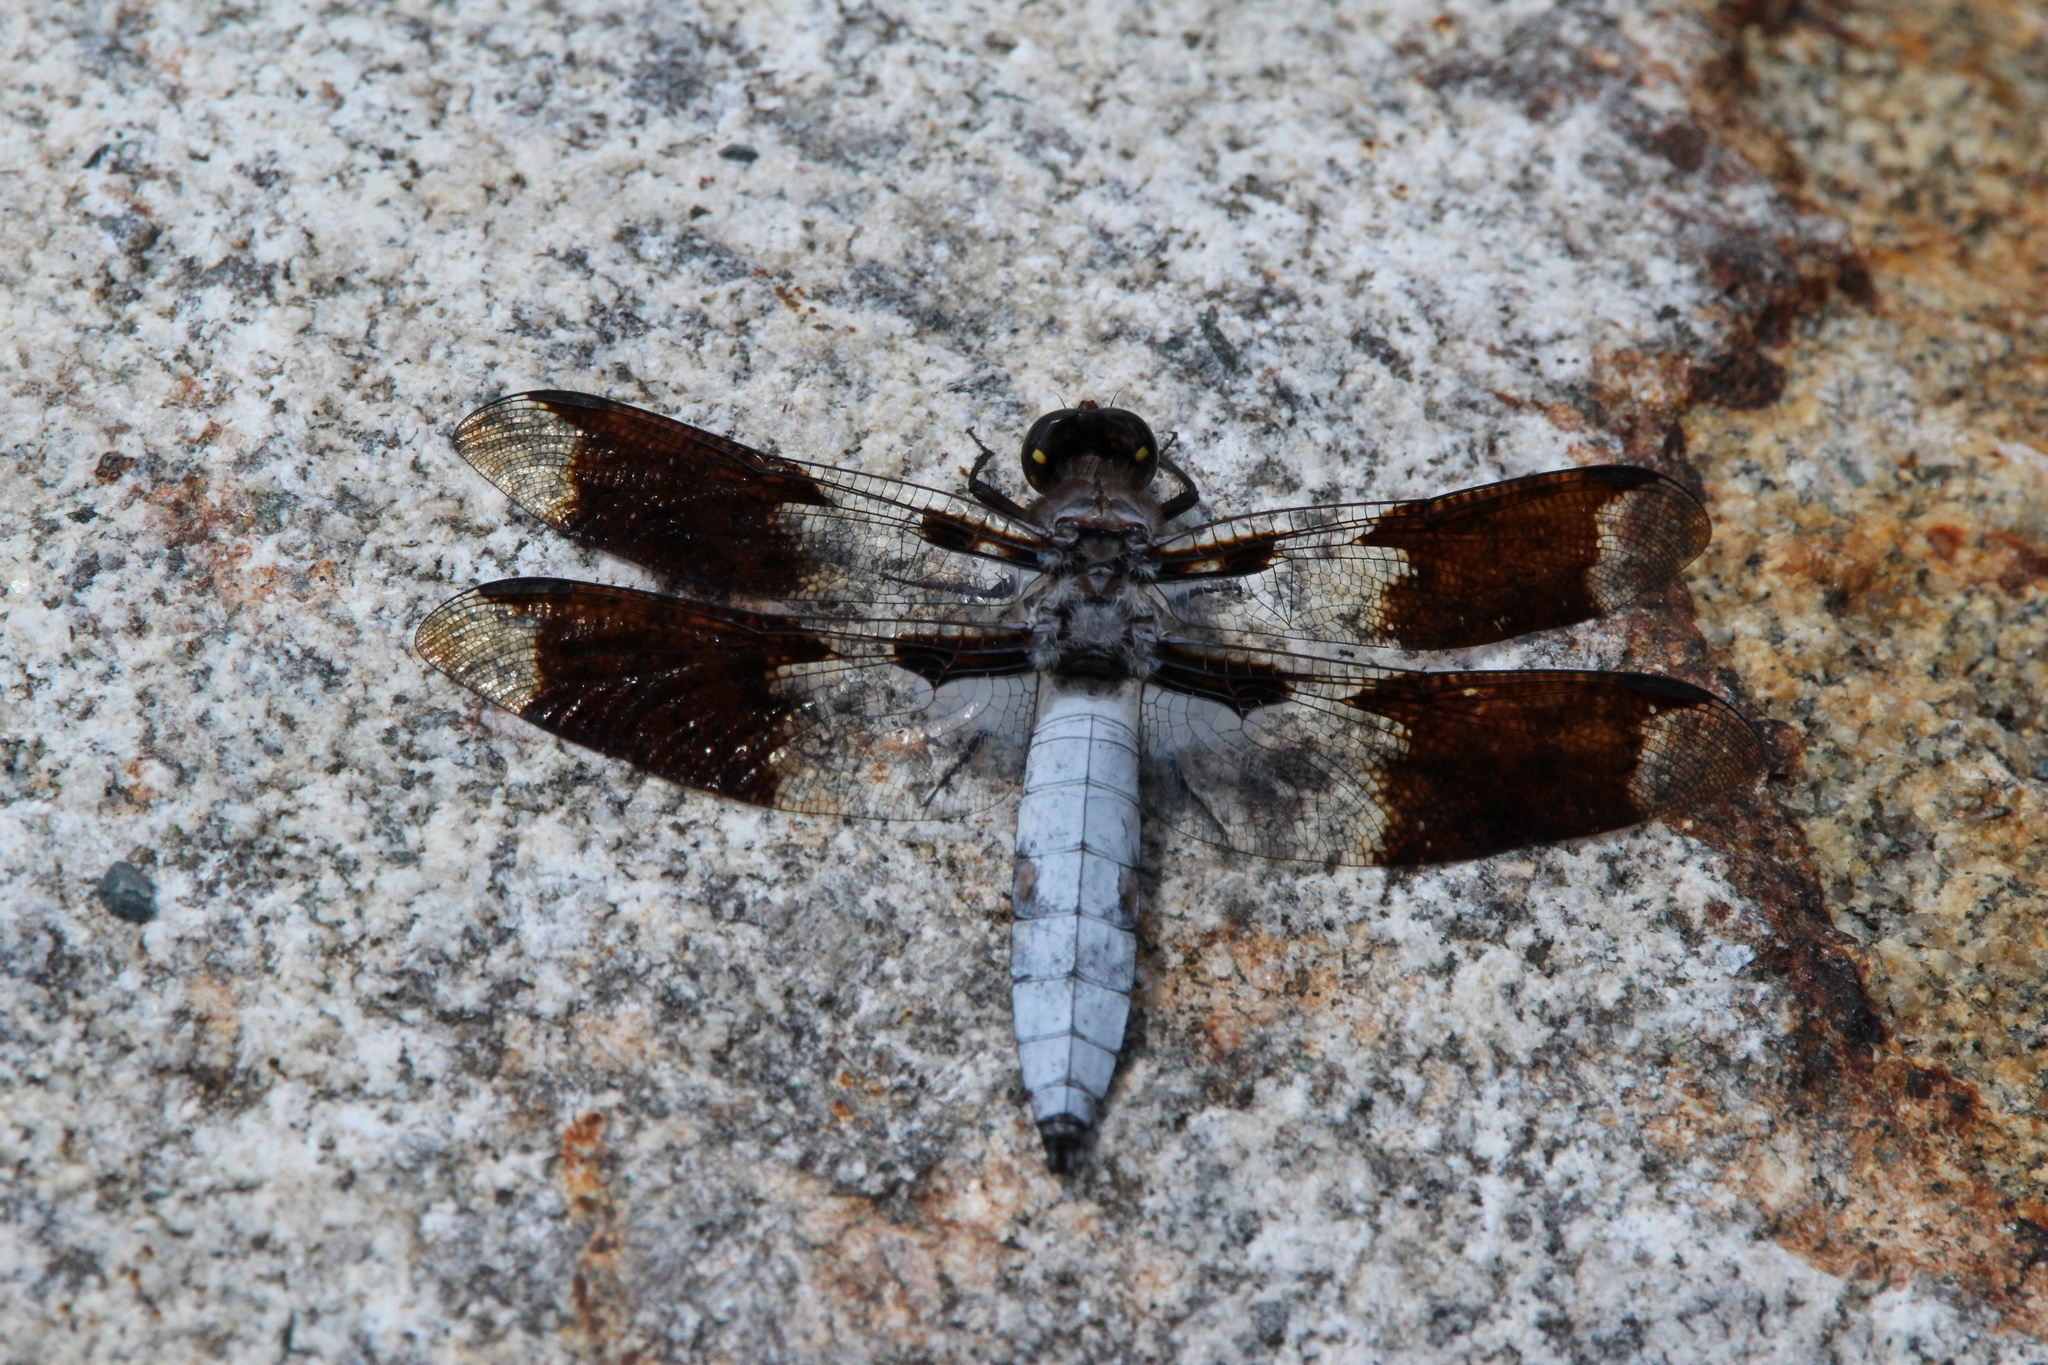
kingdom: Animalia
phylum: Arthropoda
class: Insecta
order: Odonata
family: Libellulidae
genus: Plathemis
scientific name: Plathemis lydia
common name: Common whitetail
